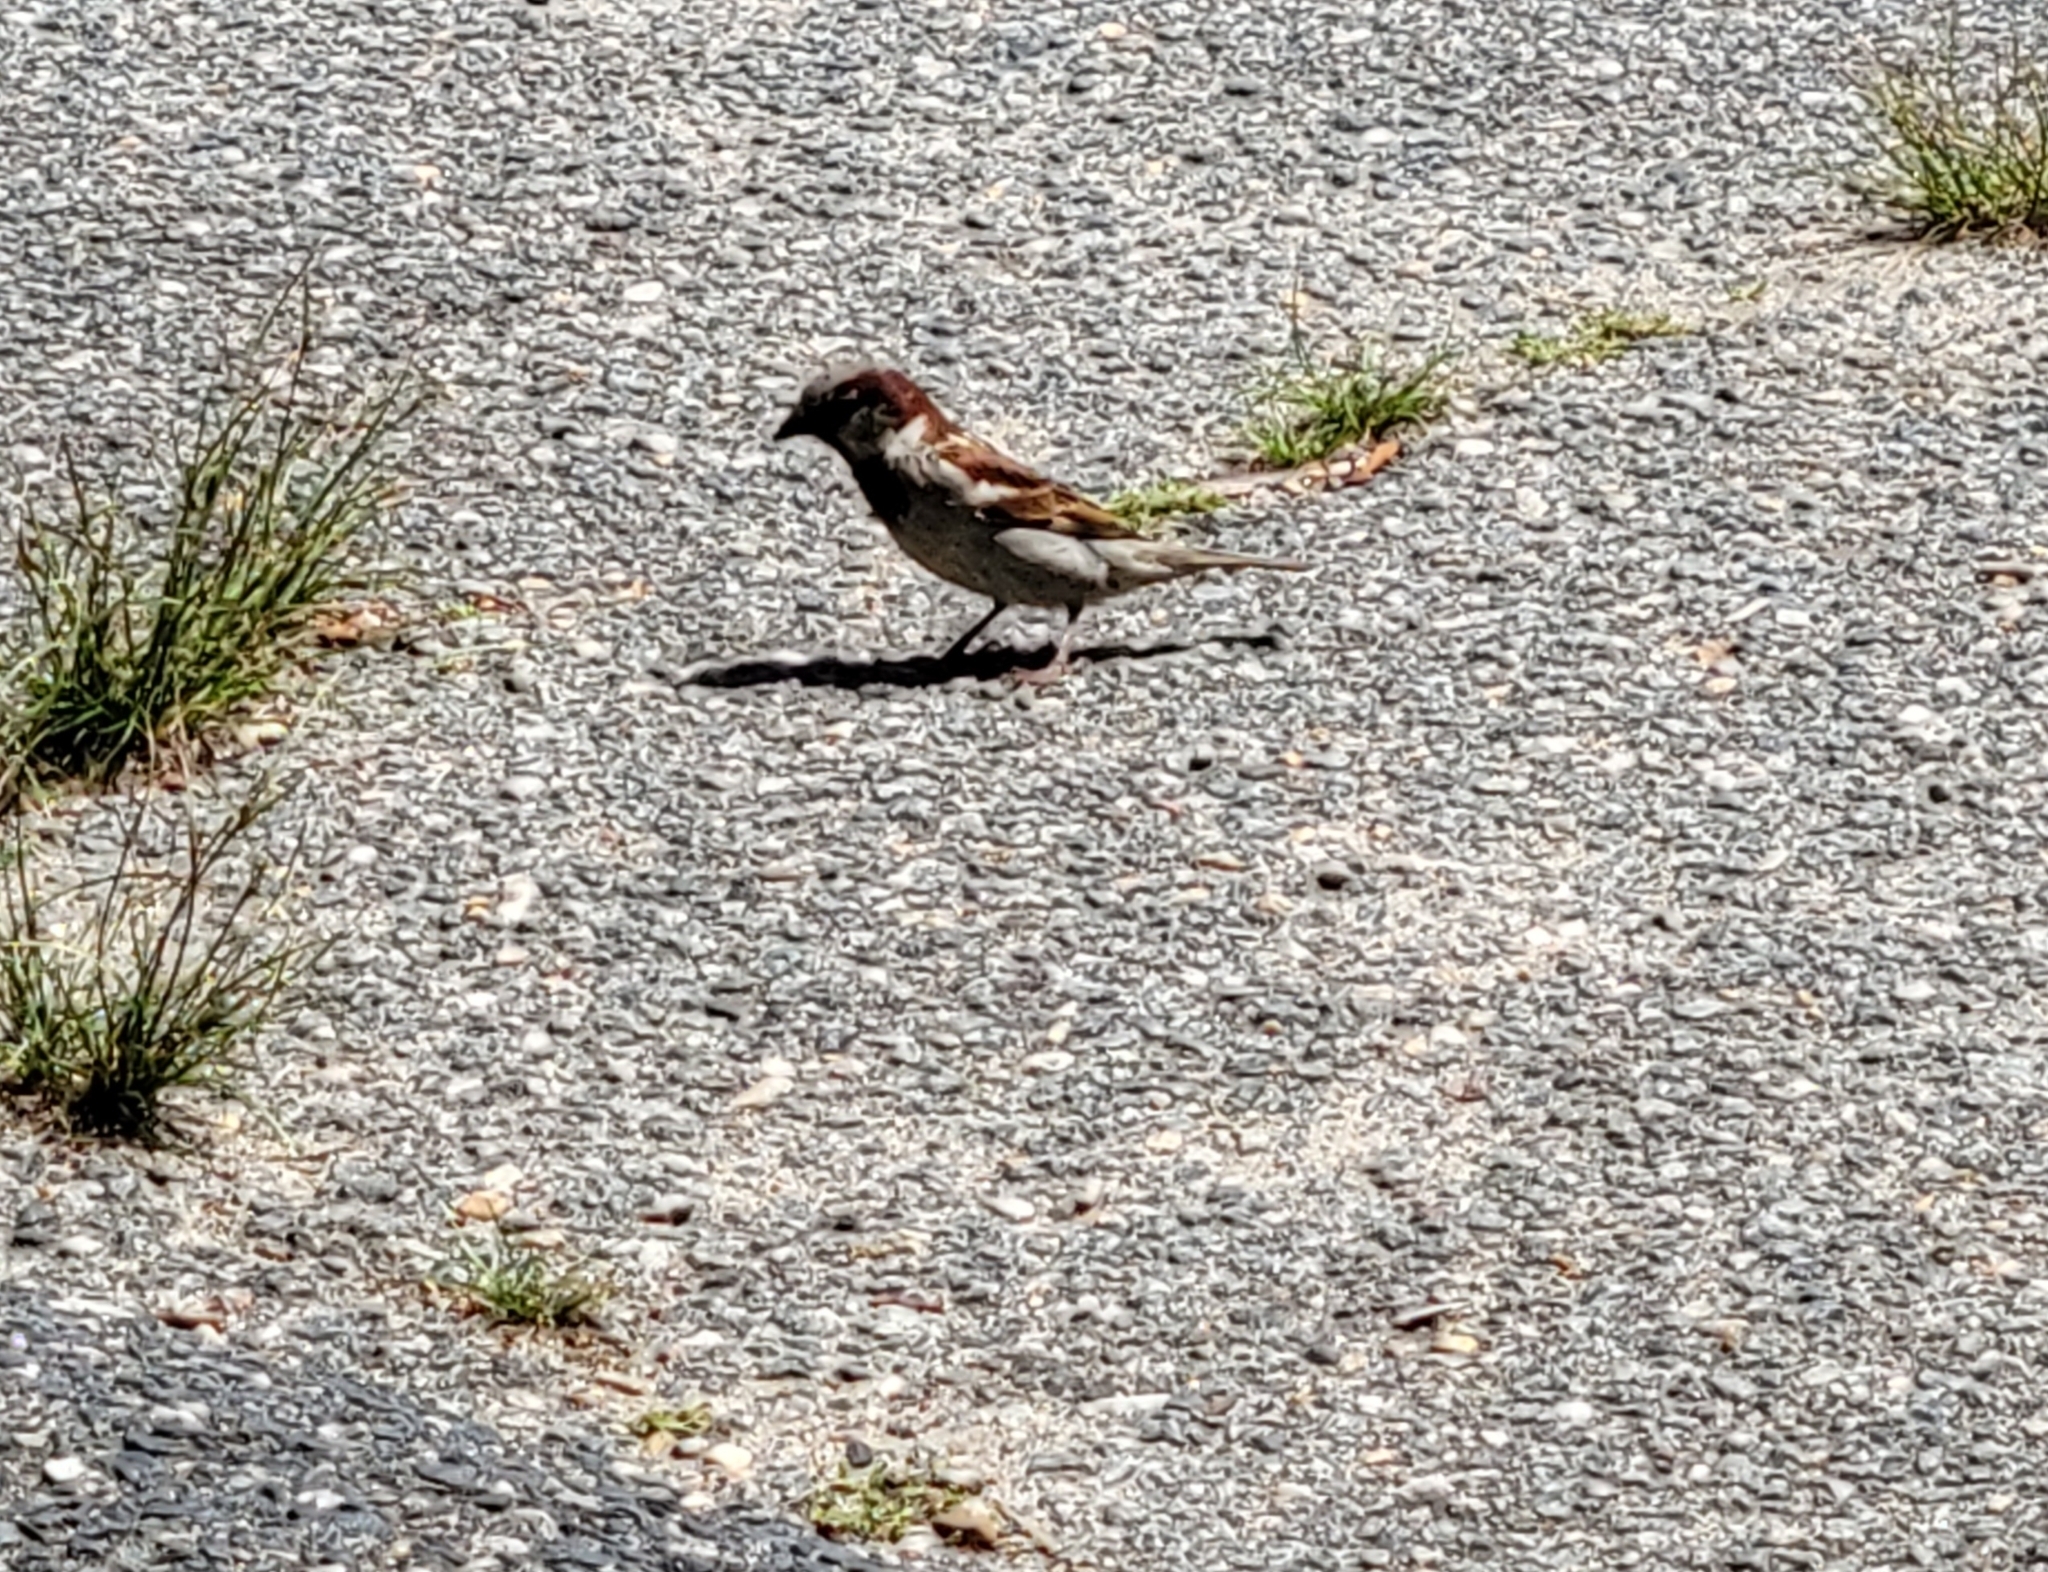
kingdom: Animalia
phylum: Chordata
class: Aves
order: Passeriformes
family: Passeridae
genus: Passer
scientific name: Passer domesticus
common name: House sparrow
